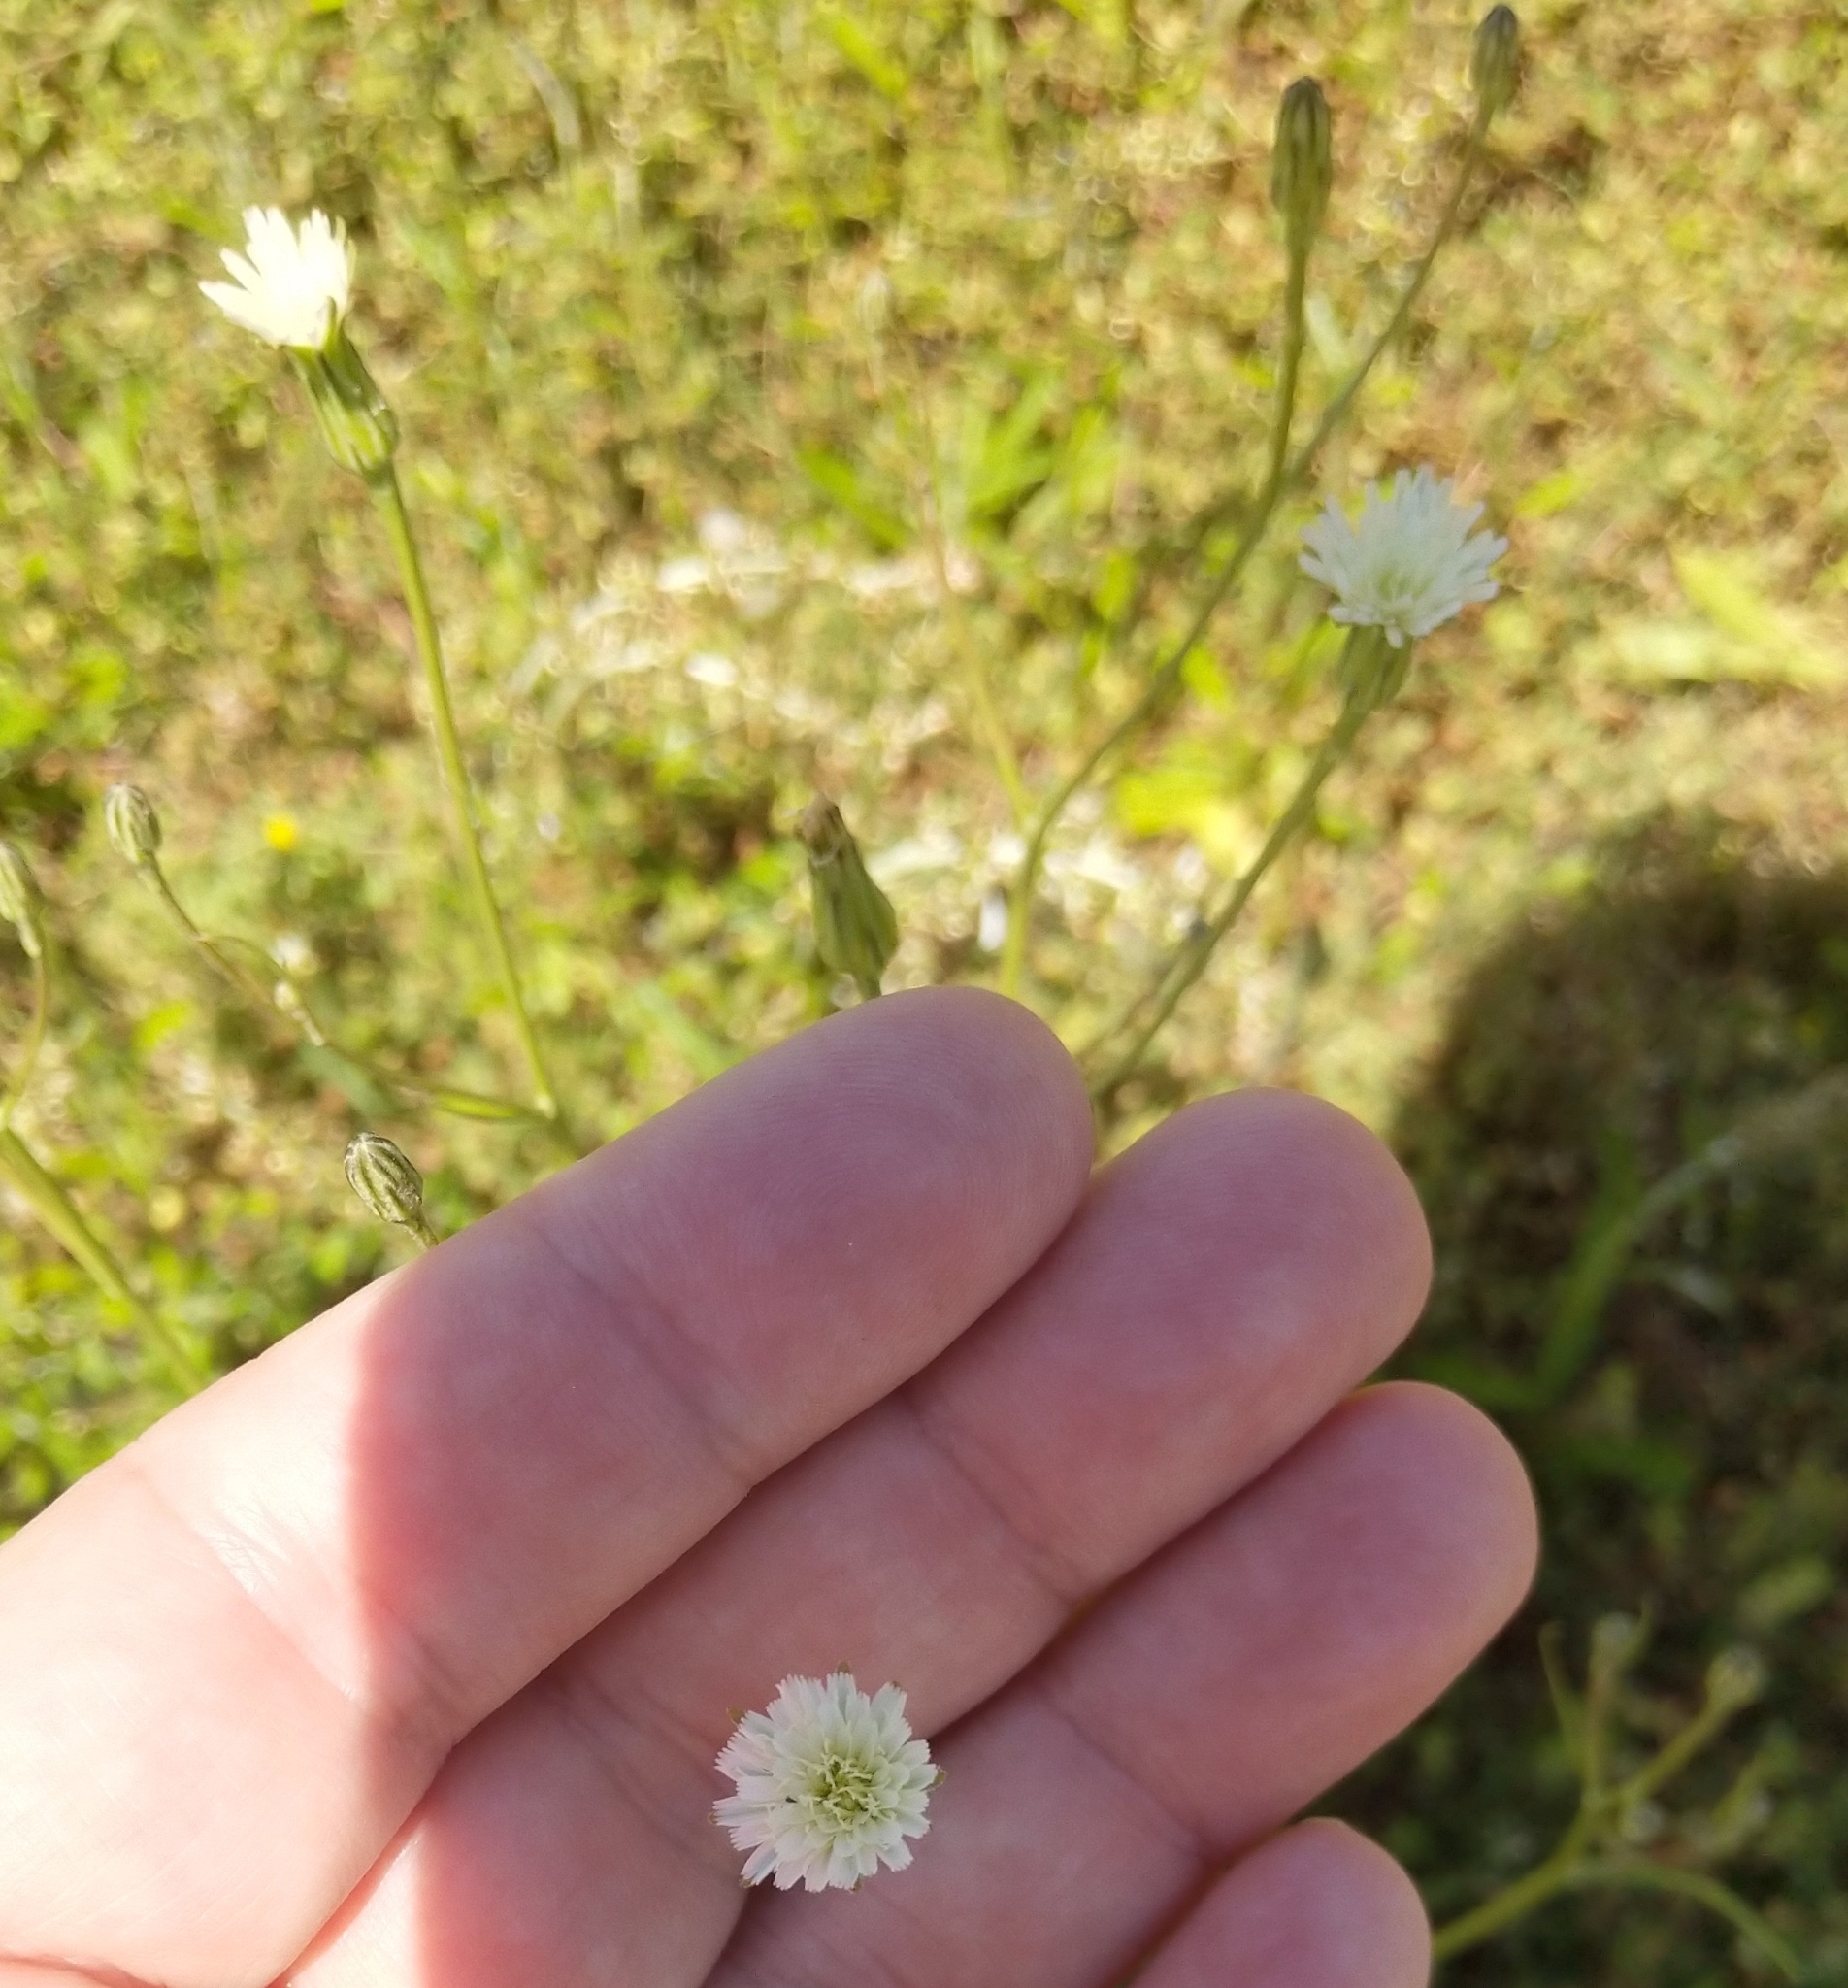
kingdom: Plantae
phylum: Tracheophyta
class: Magnoliopsida
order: Asterales
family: Asteraceae
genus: Hypochaeris
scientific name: Hypochaeris albiflora
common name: White flatweed
